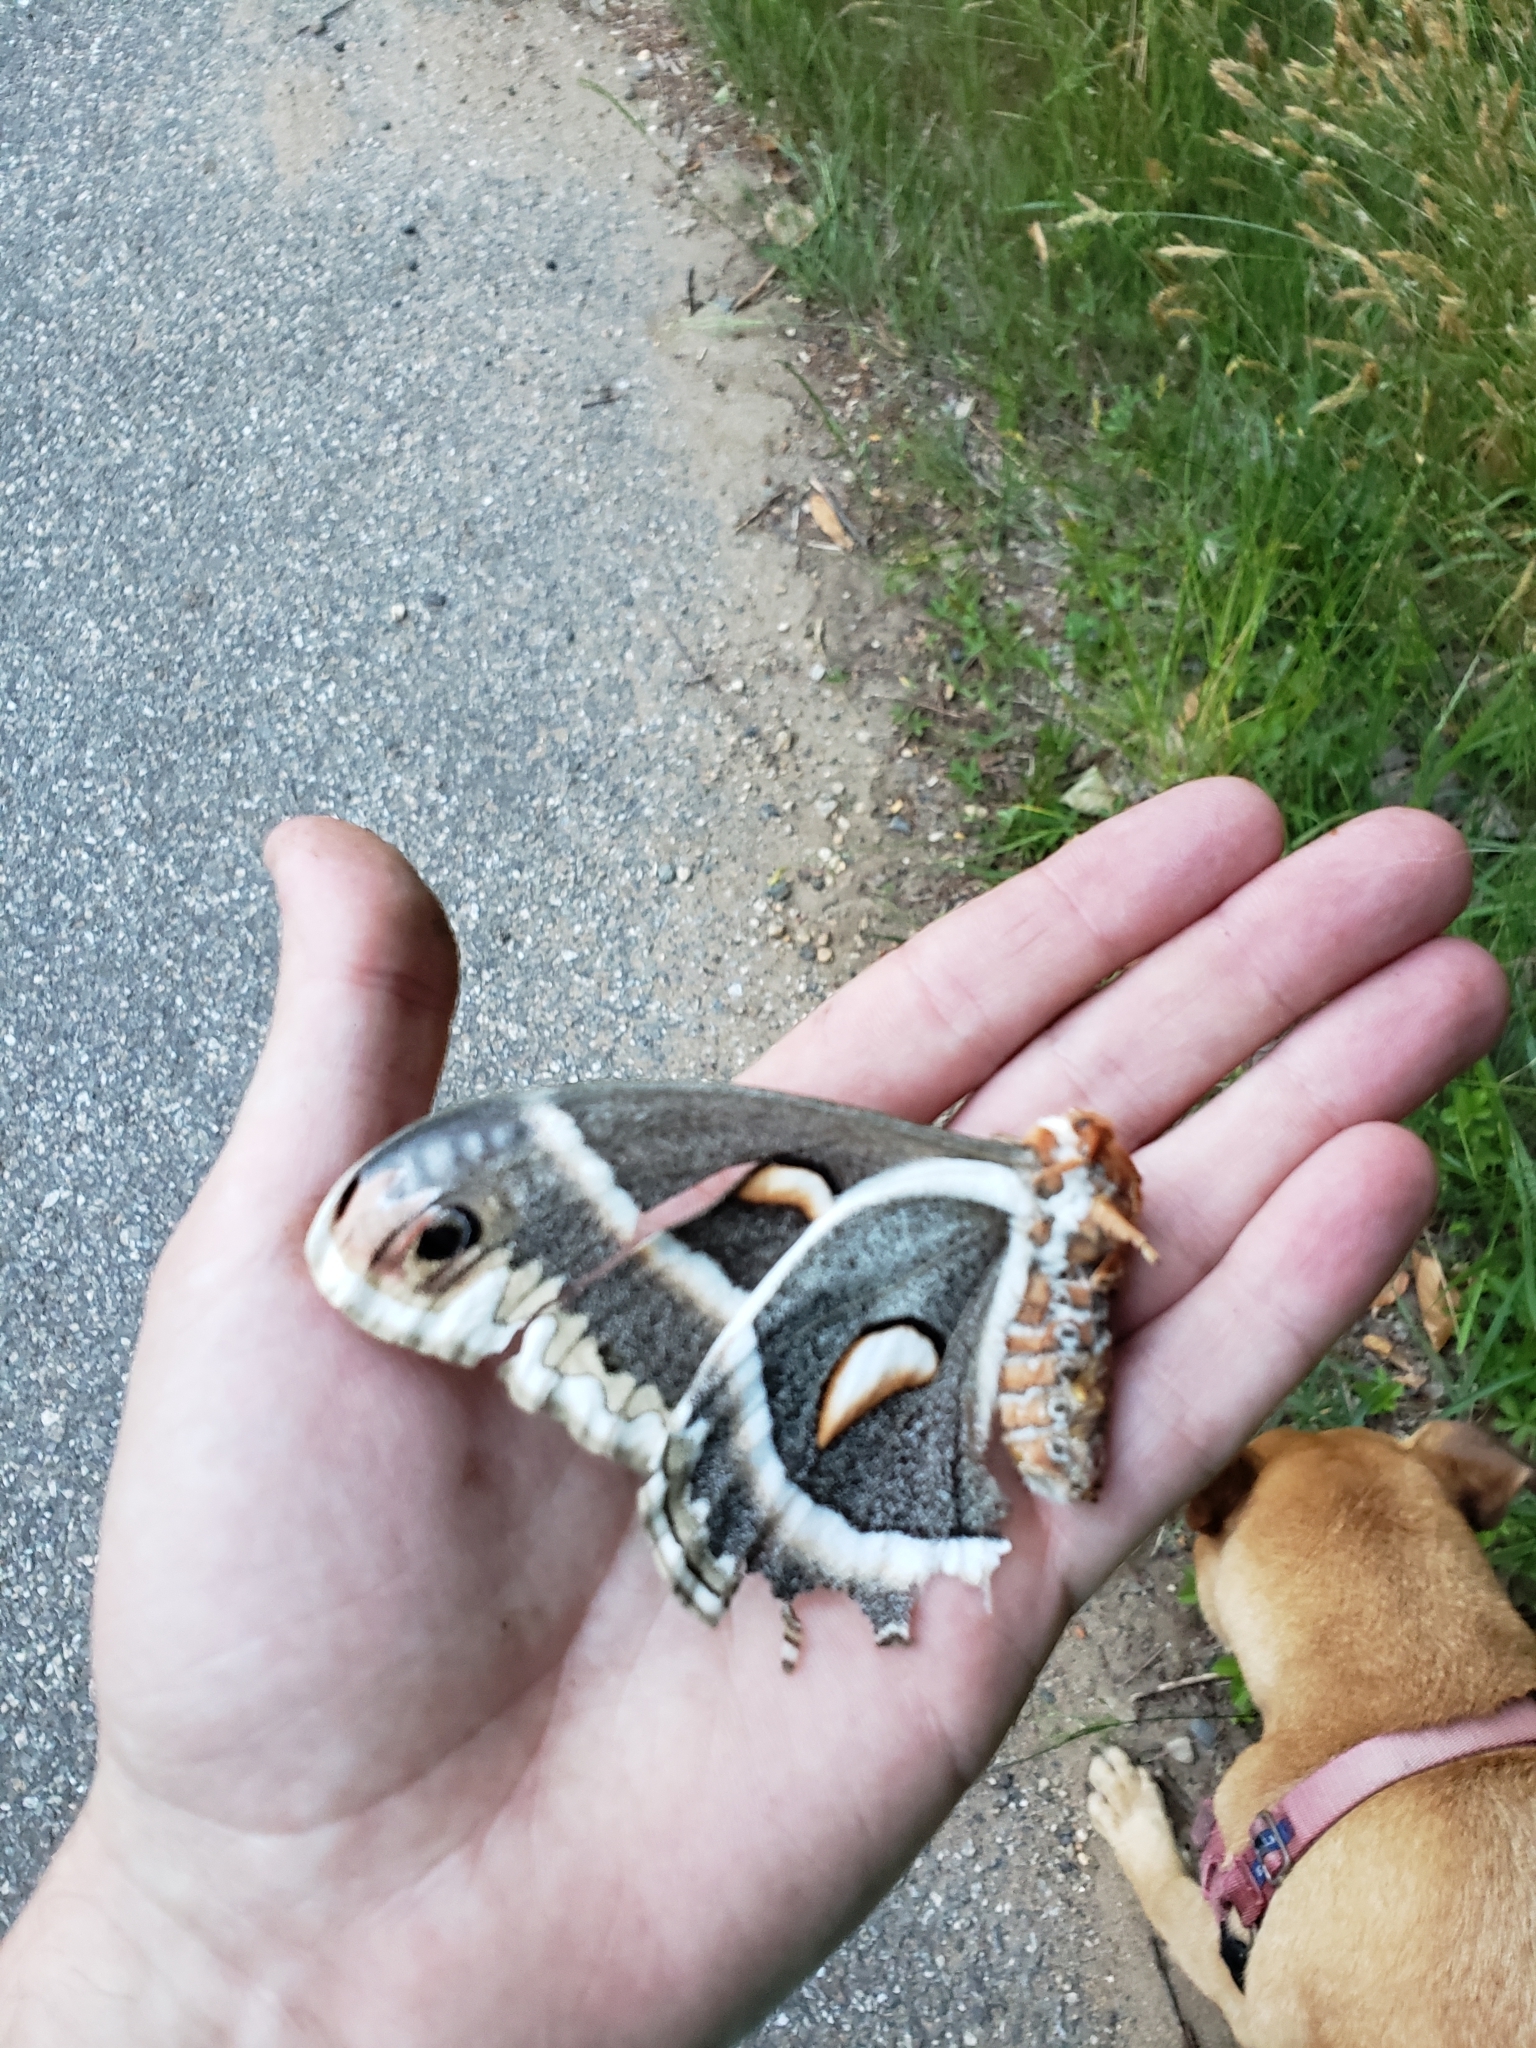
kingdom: Animalia
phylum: Arthropoda
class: Insecta
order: Lepidoptera
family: Saturniidae
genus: Hyalophora
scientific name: Hyalophora cecropia
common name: Cecropia silkmoth
